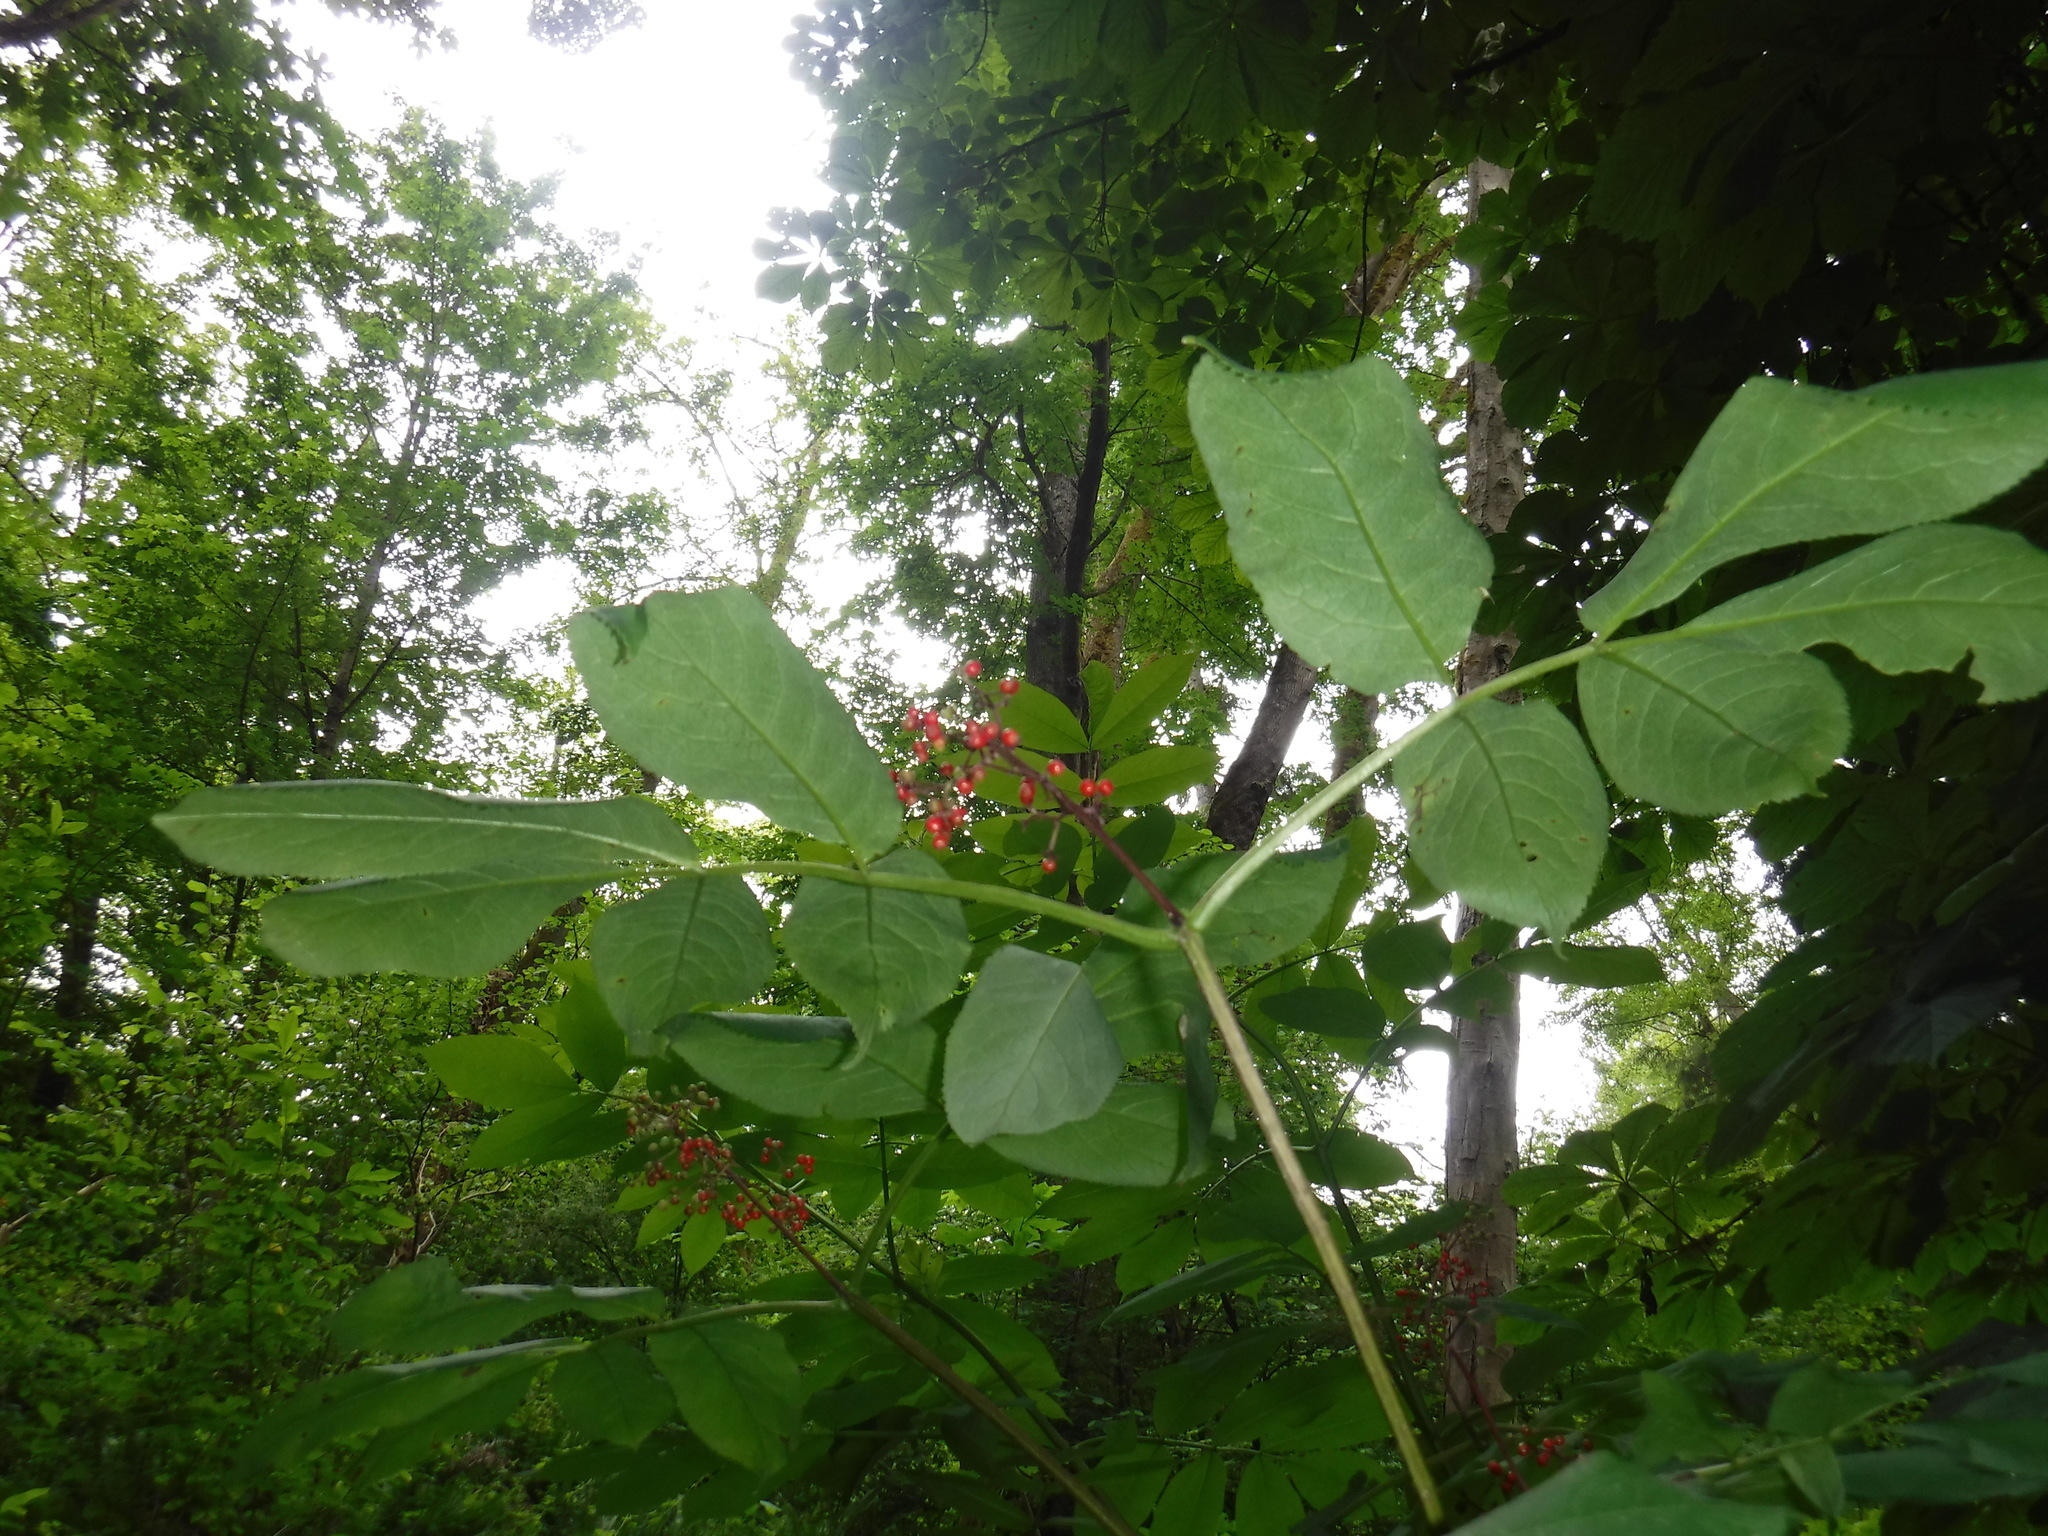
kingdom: Plantae
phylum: Tracheophyta
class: Magnoliopsida
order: Dipsacales
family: Viburnaceae
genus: Sambucus
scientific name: Sambucus racemosa
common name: Red-berried elder
